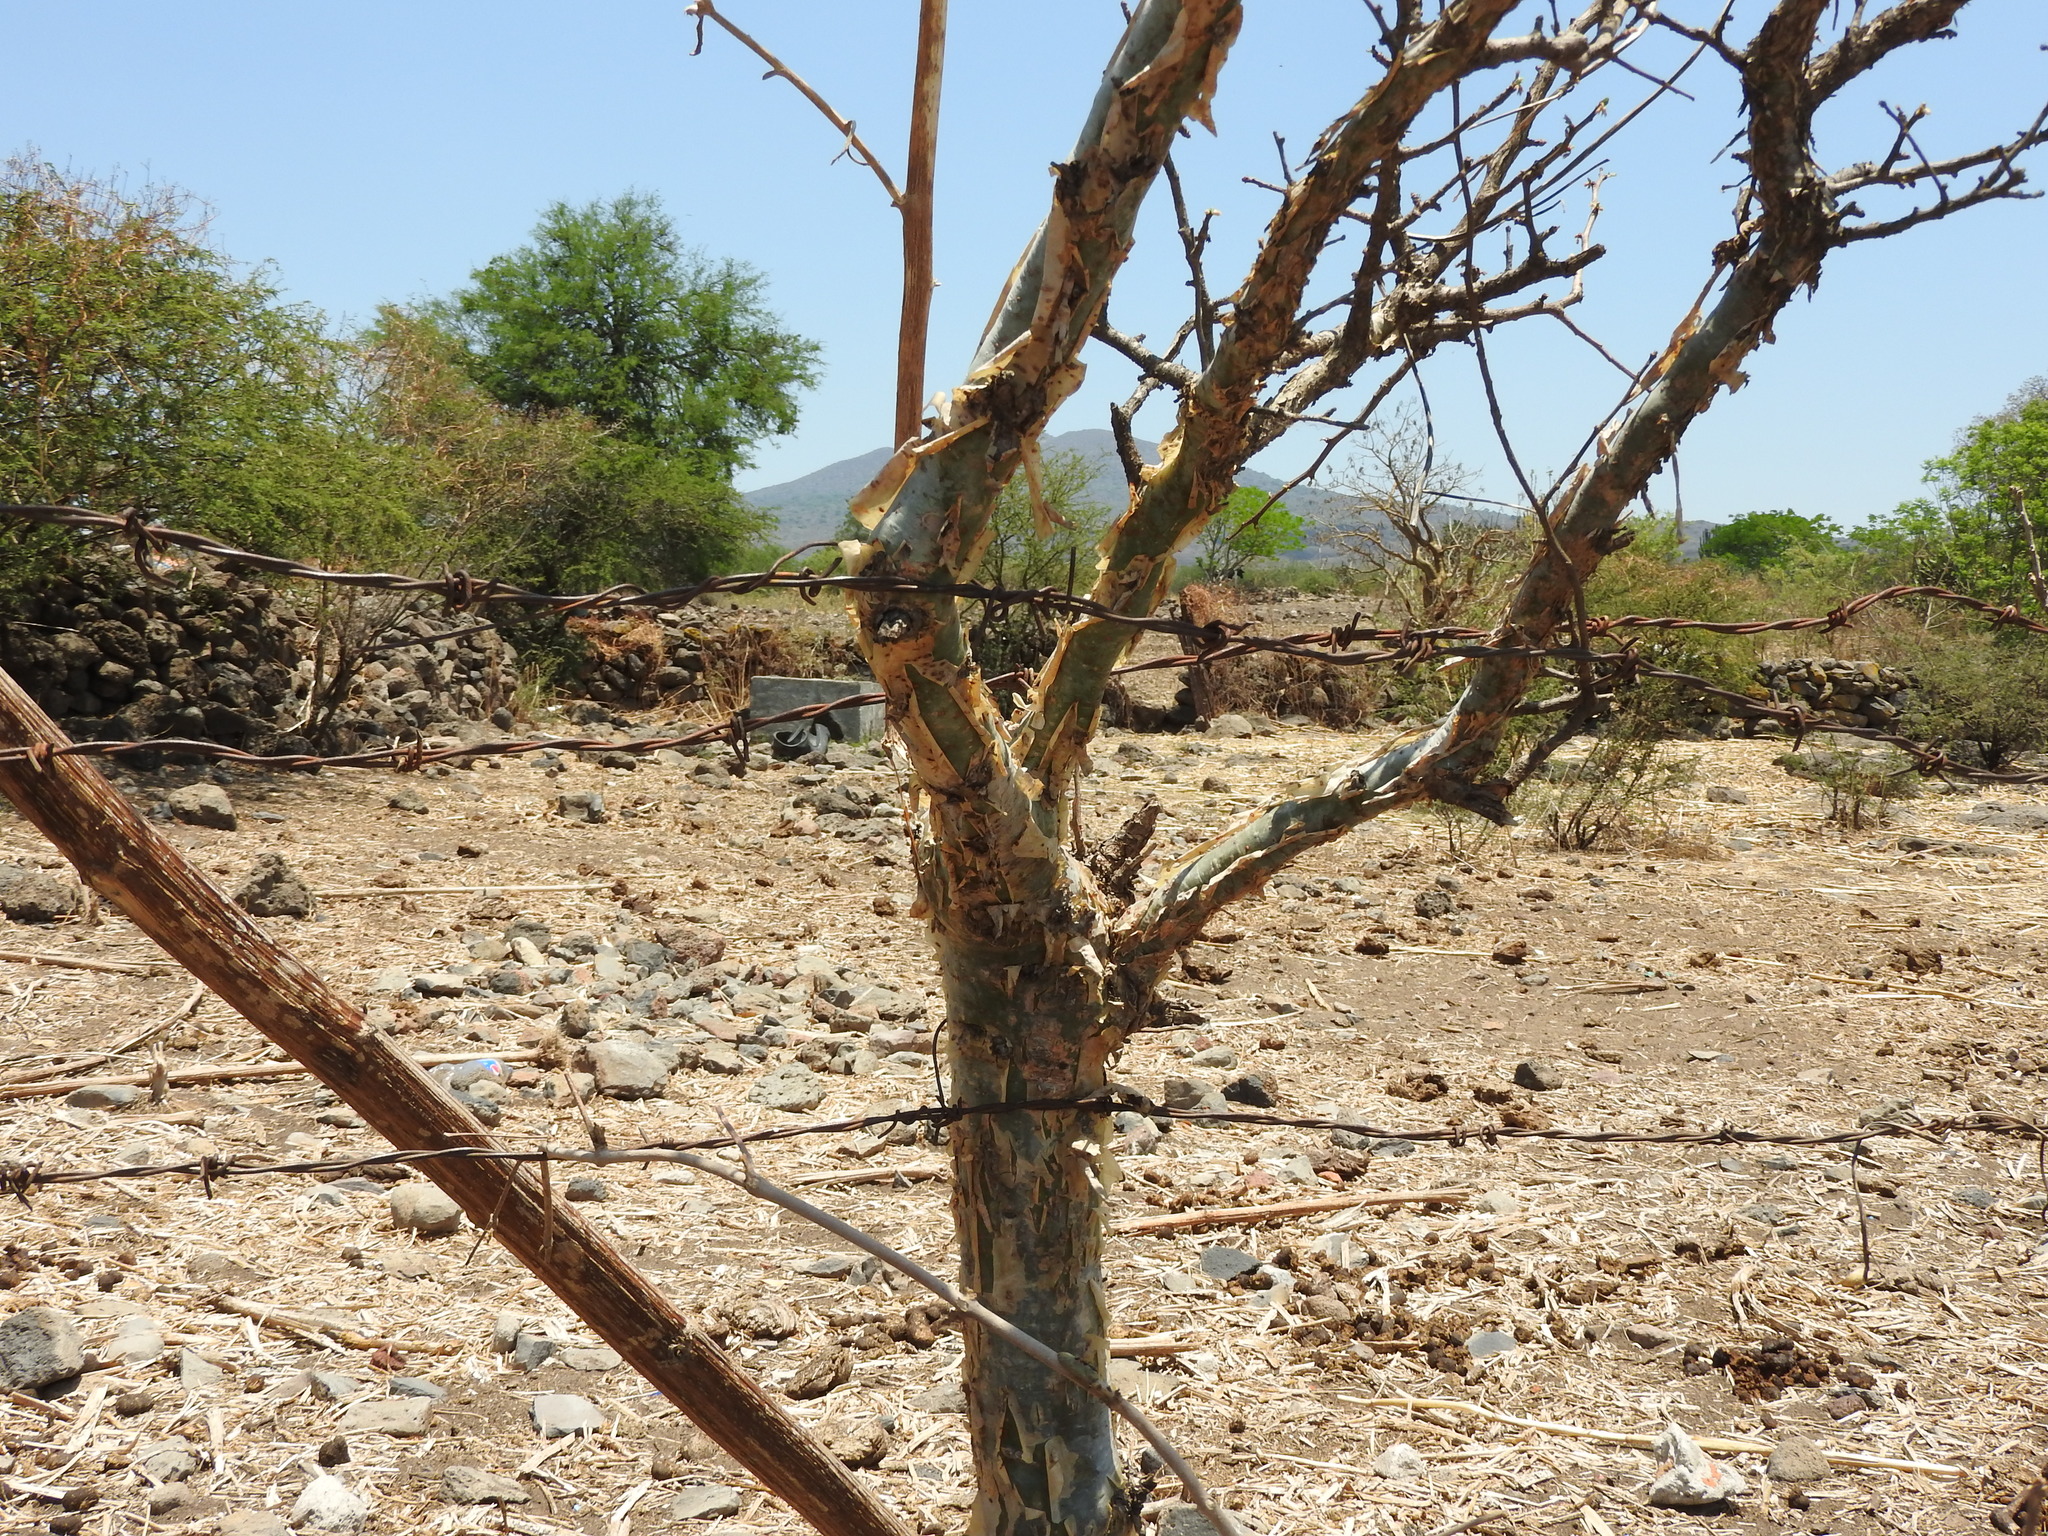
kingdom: Plantae
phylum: Tracheophyta
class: Magnoliopsida
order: Sapindales
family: Burseraceae
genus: Bursera
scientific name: Bursera fagaroides
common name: Elephant tree
